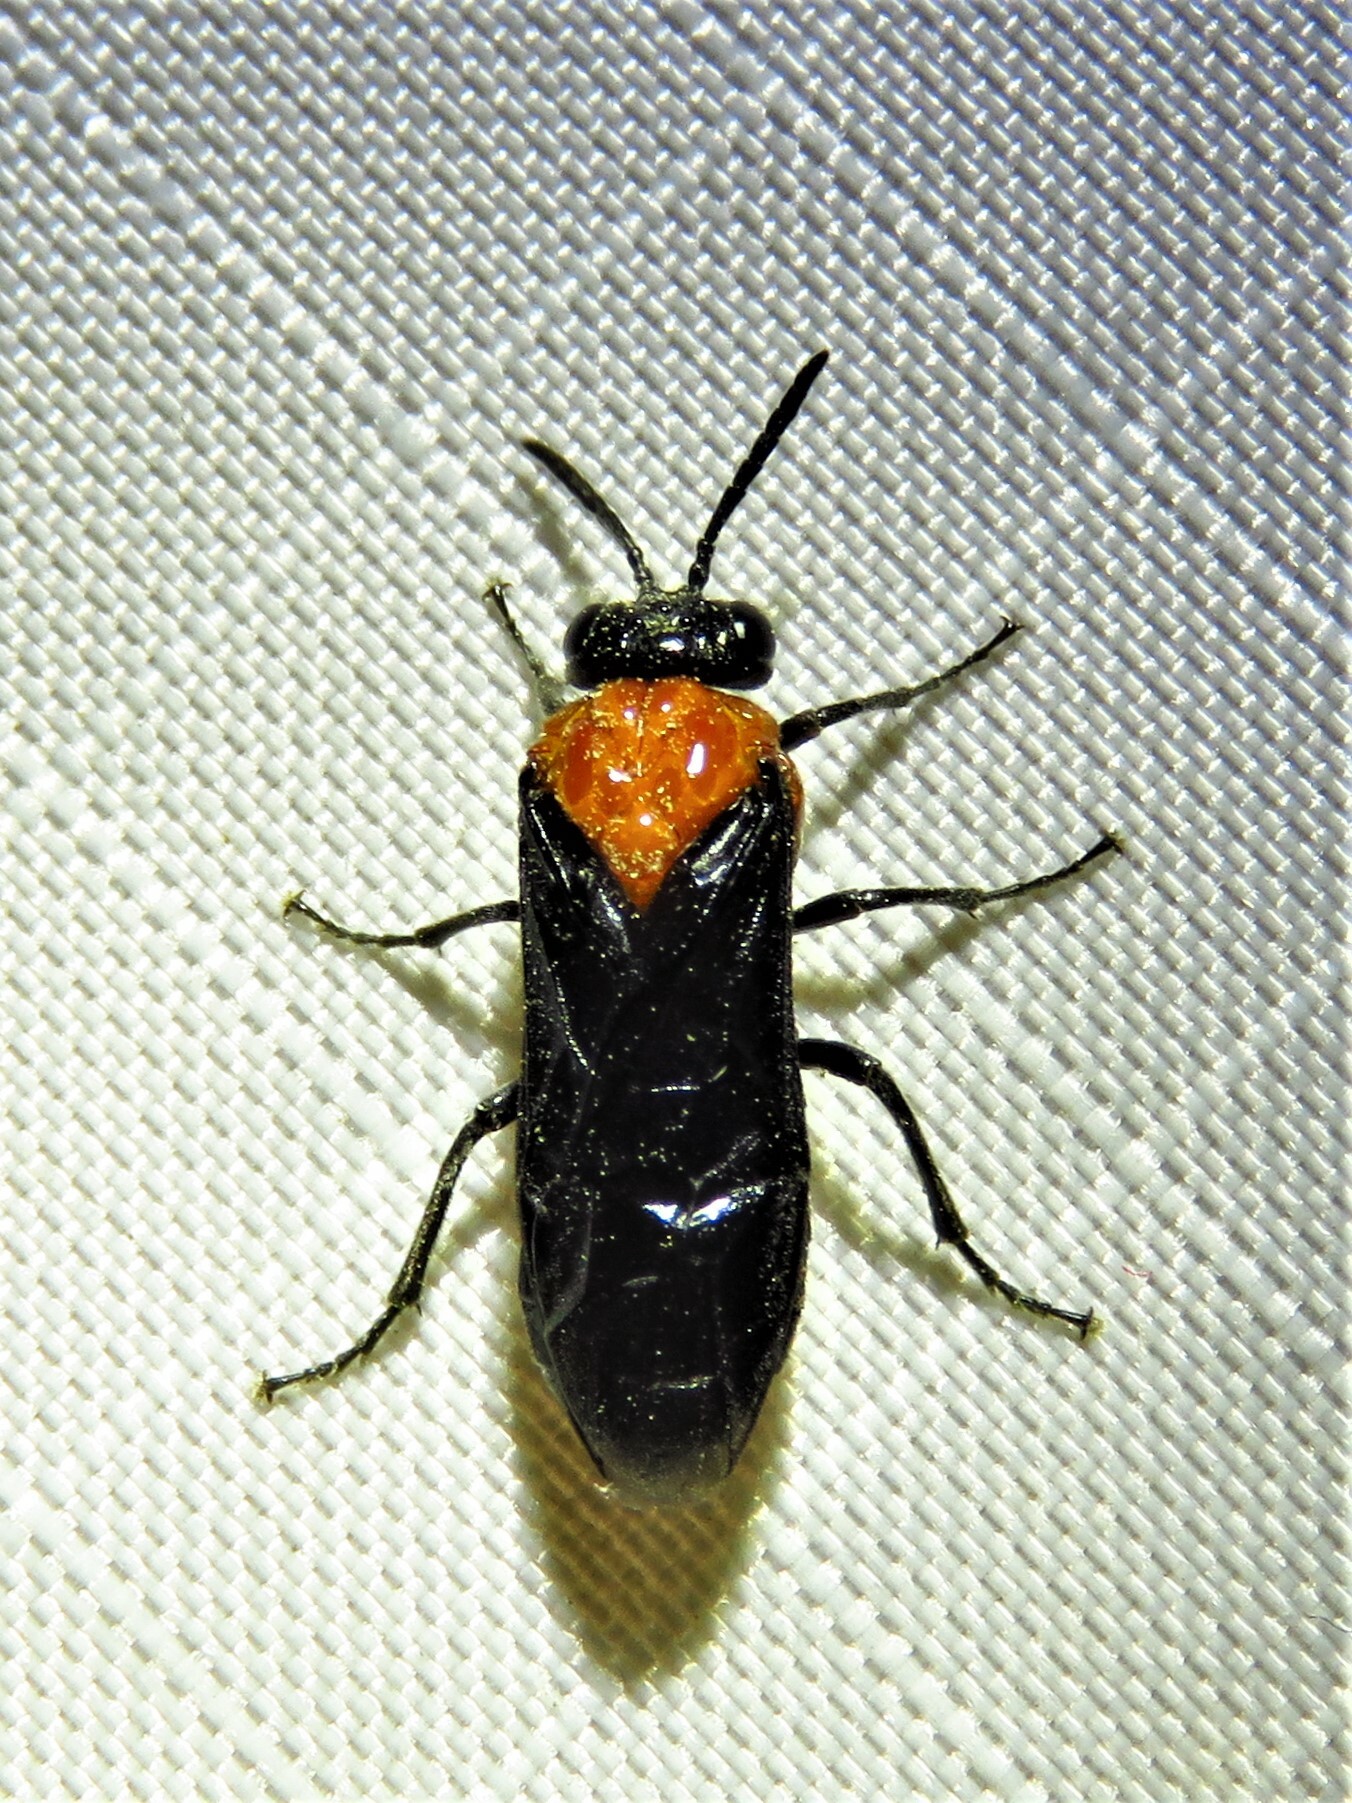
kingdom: Animalia
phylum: Arthropoda
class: Insecta
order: Hymenoptera
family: Tenthredinidae
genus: Tethida
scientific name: Tethida barda
